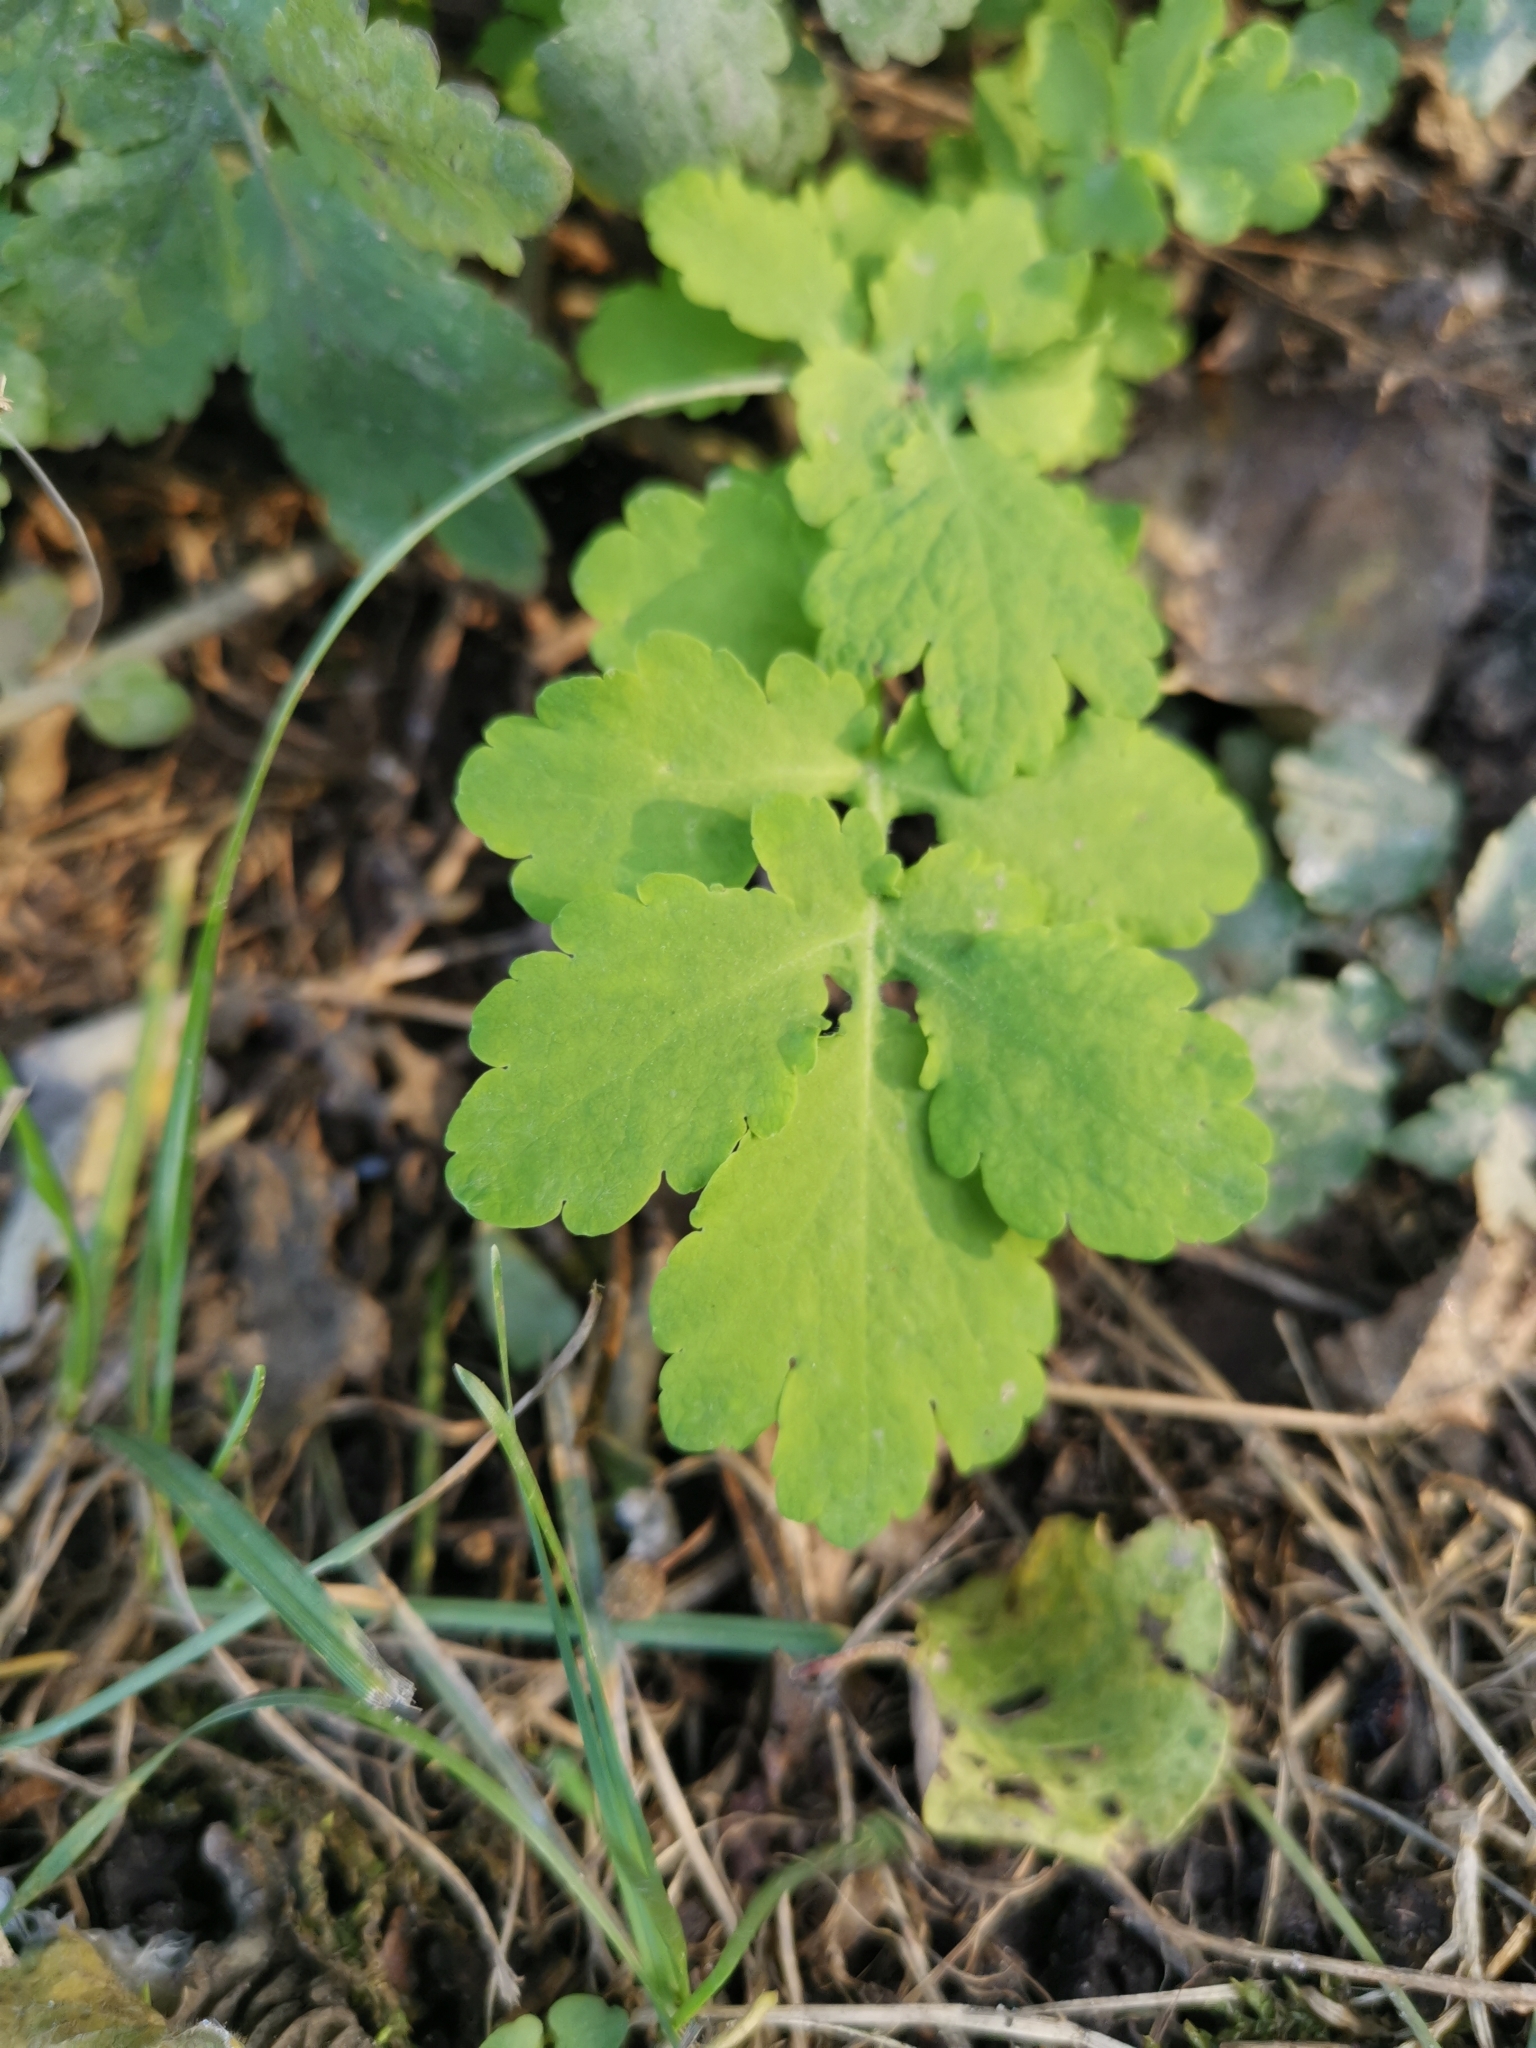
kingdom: Plantae
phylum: Tracheophyta
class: Magnoliopsida
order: Ranunculales
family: Papaveraceae
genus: Chelidonium
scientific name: Chelidonium majus
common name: Greater celandine
